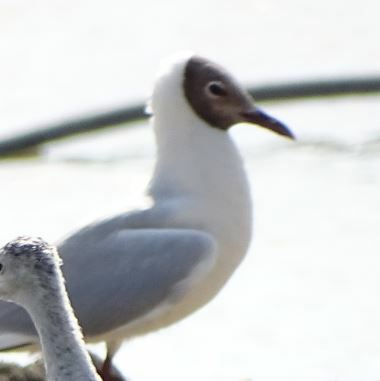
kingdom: Animalia
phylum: Chordata
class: Aves
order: Charadriiformes
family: Laridae
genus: Chroicocephalus
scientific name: Chroicocephalus ridibundus
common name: Black-headed gull
